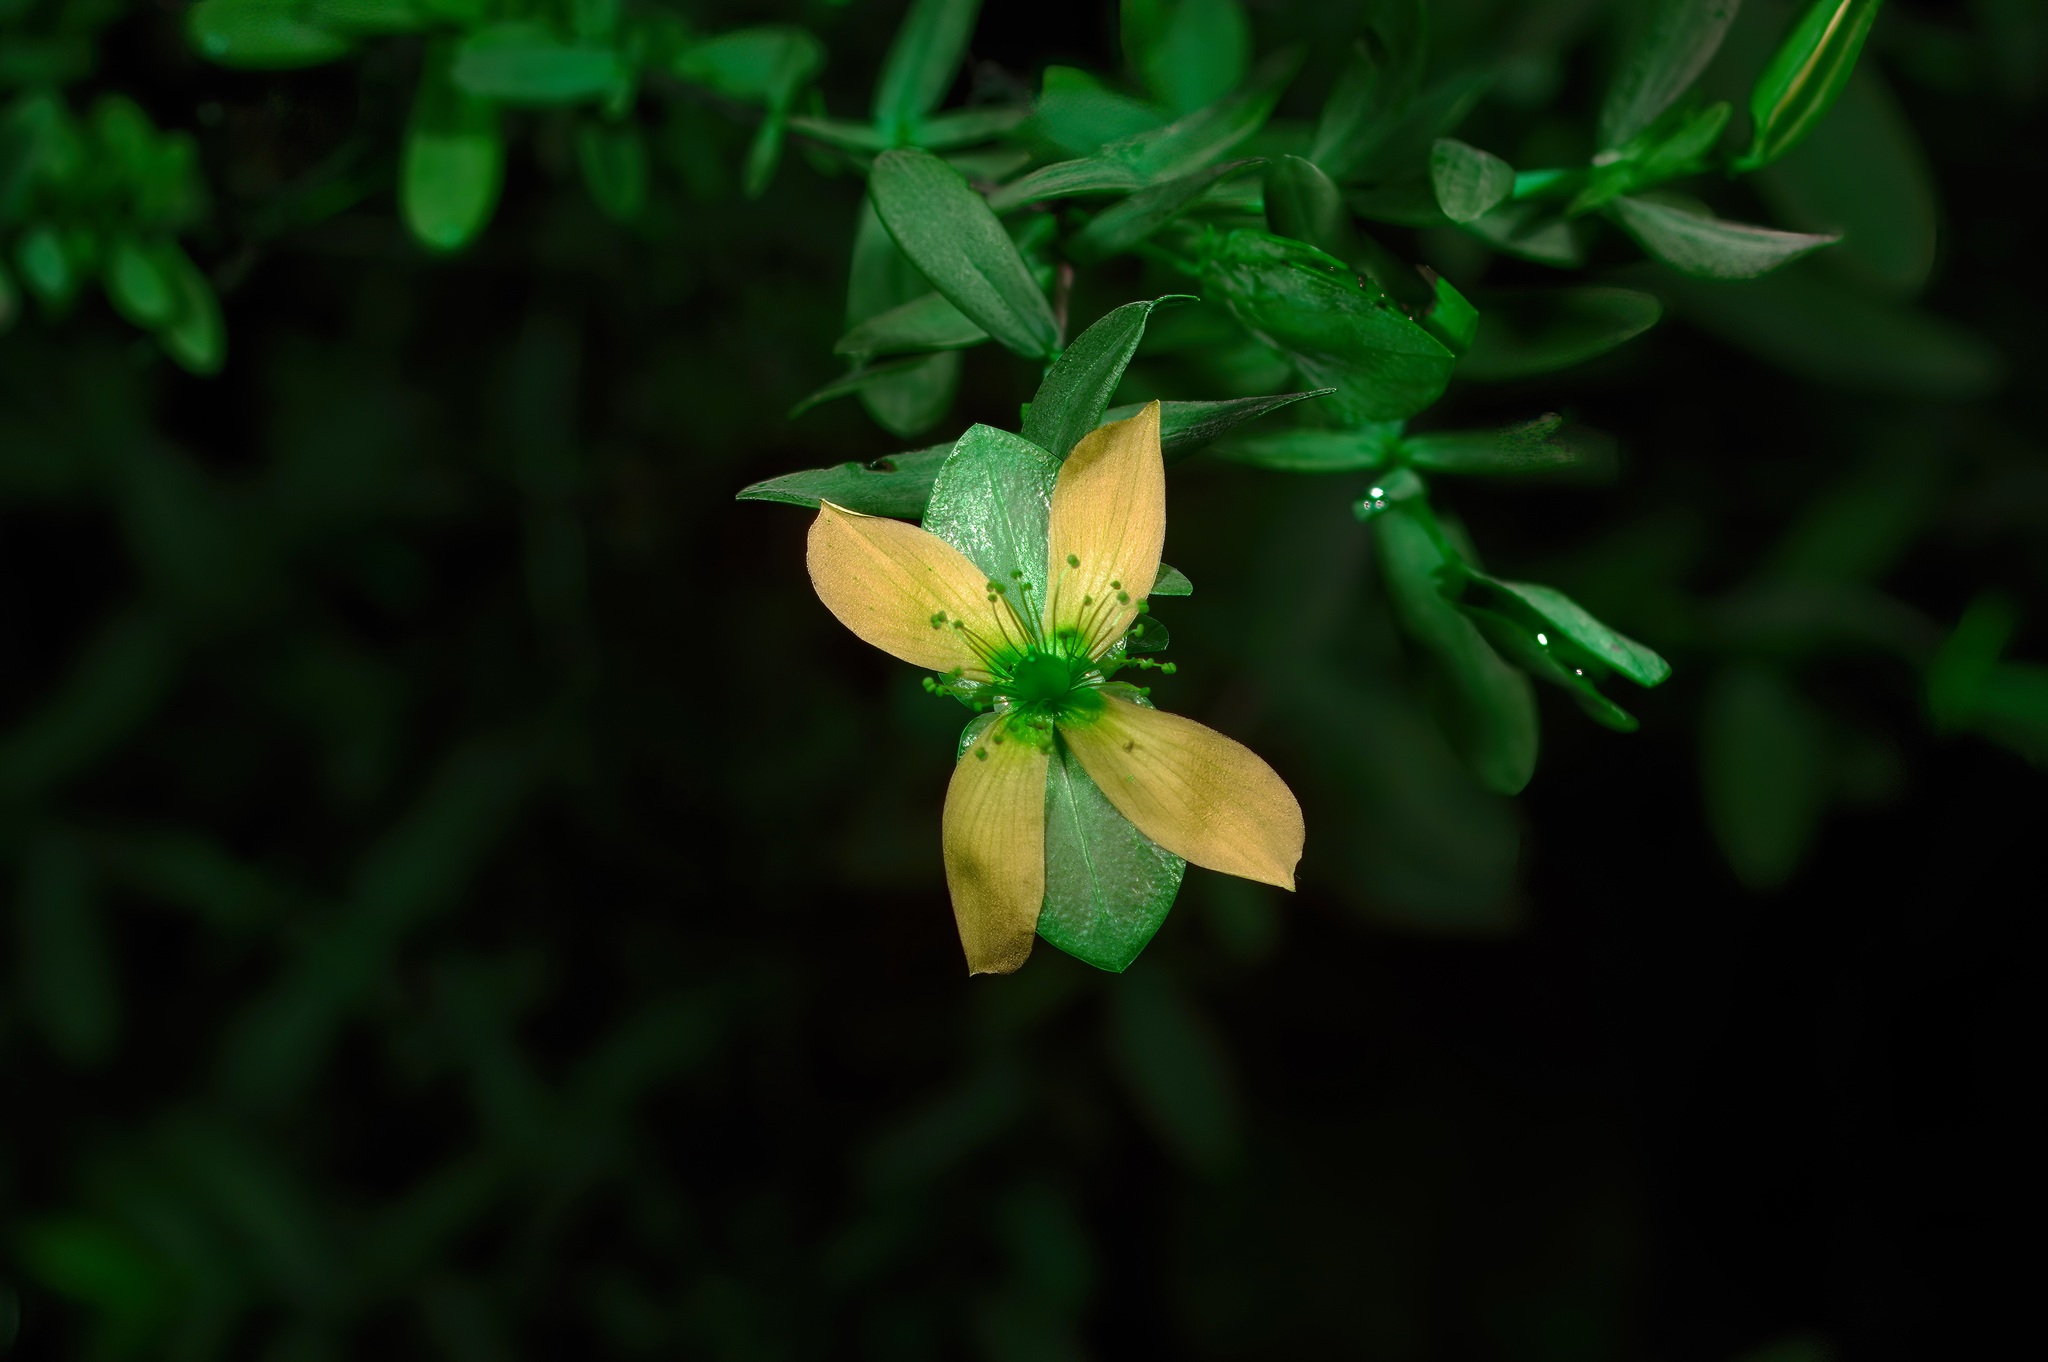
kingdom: Plantae
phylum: Tracheophyta
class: Magnoliopsida
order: Malpighiales
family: Hypericaceae
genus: Hypericum
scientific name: Hypericum hypericoides
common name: St. andrew's cross
